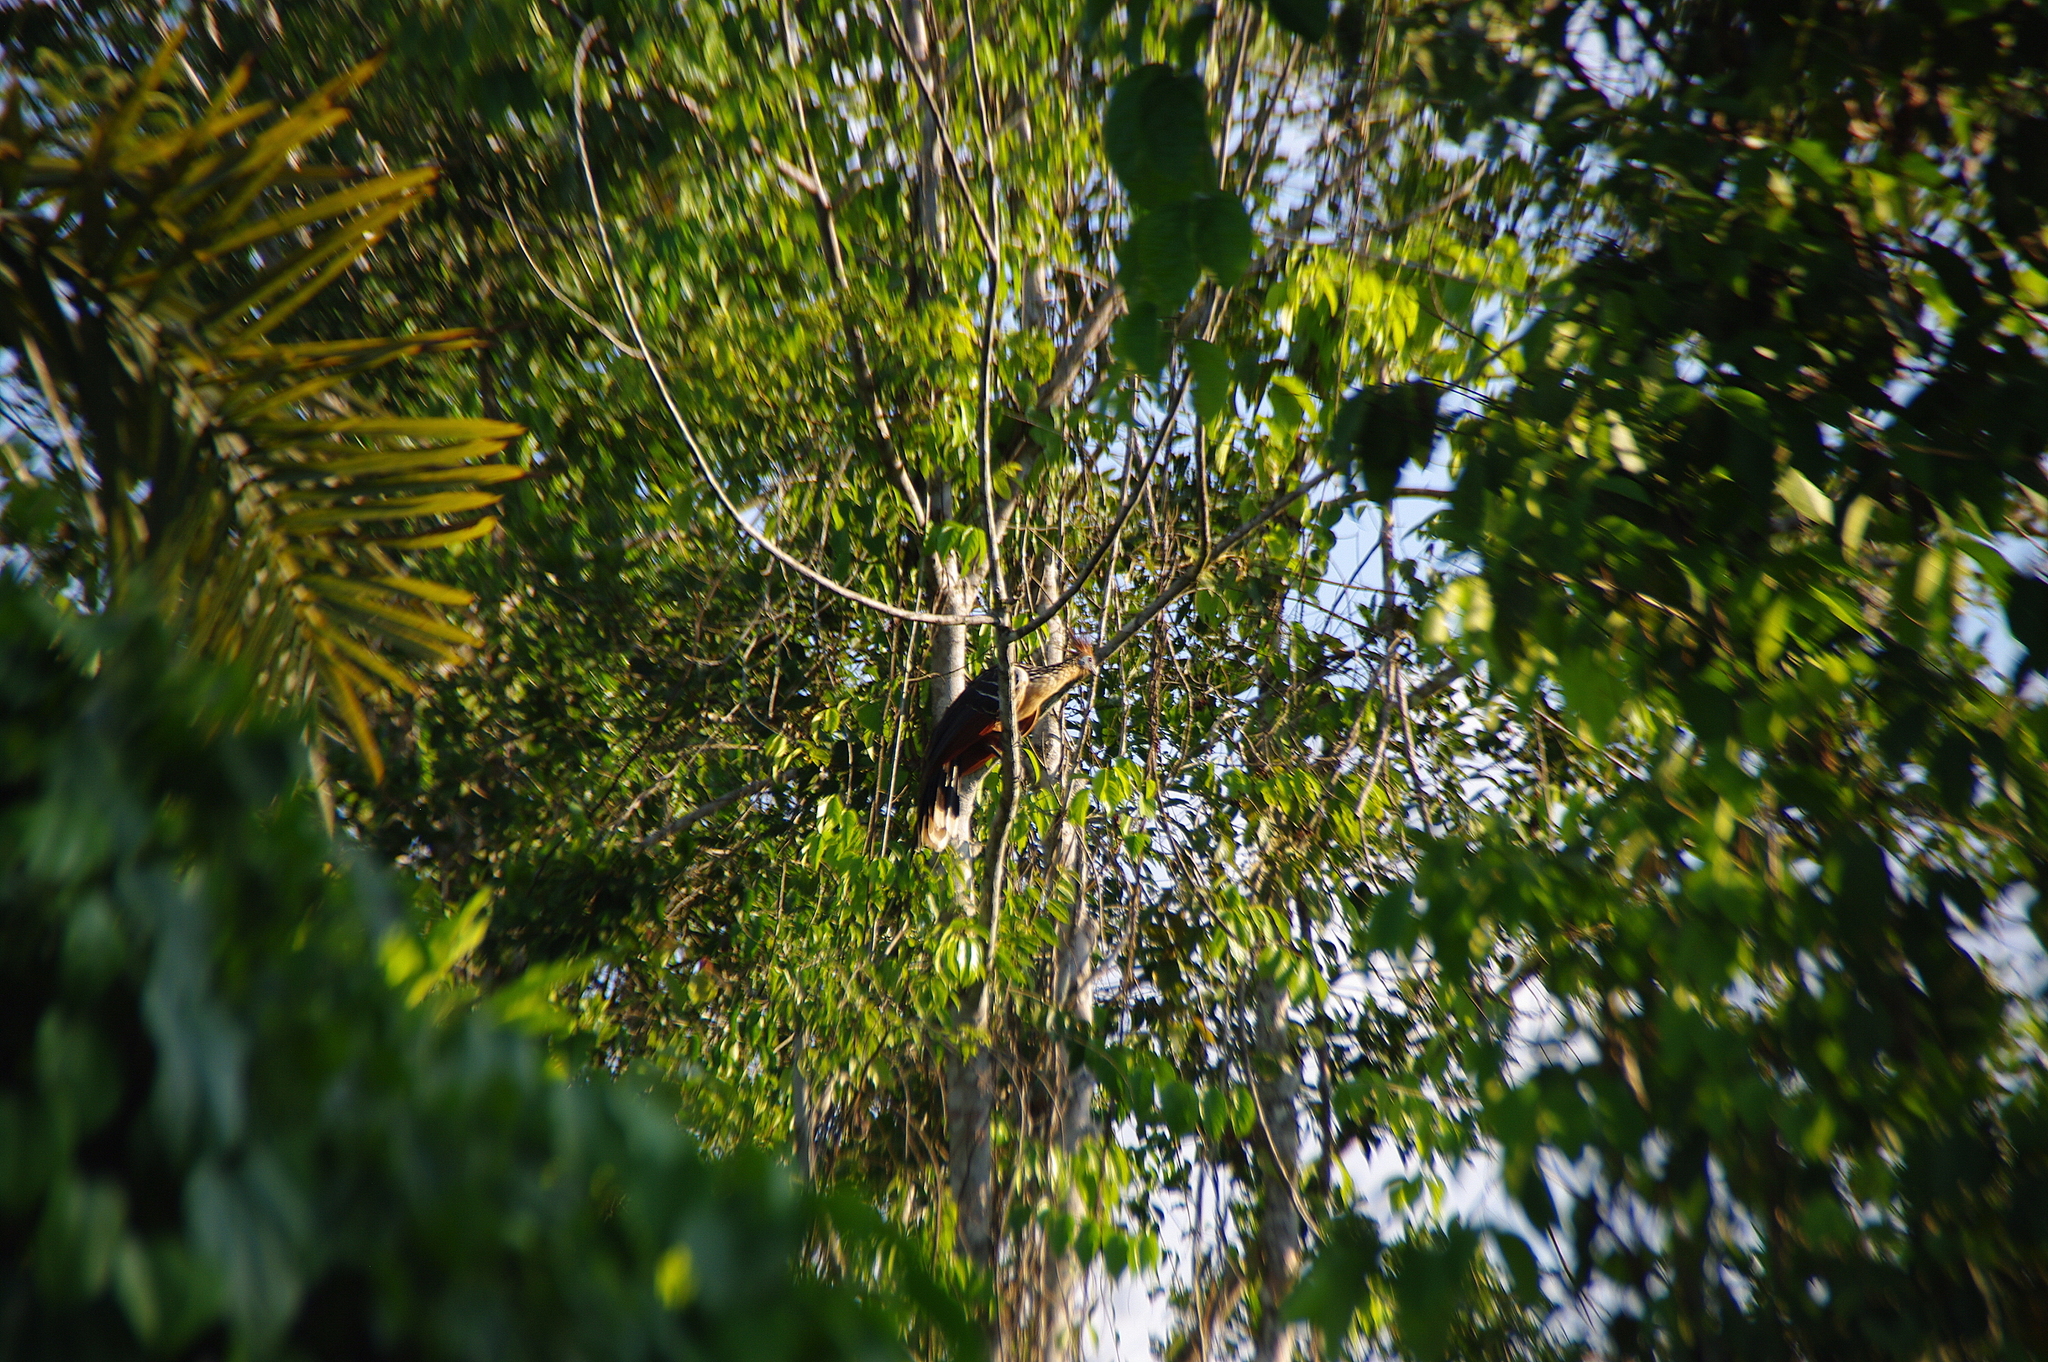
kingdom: Animalia
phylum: Chordata
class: Aves
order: Opisthocomiformes
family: Opisthocomidae
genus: Opisthocomus
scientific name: Opisthocomus hoazin
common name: Hoatzin
